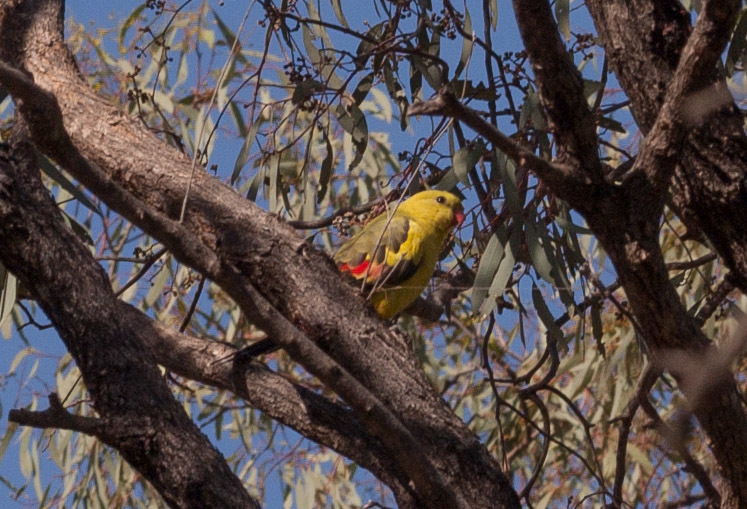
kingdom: Animalia
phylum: Chordata
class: Aves
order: Psittaciformes
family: Psittacidae
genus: Polytelis
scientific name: Polytelis anthopeplus
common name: Regent parrot
